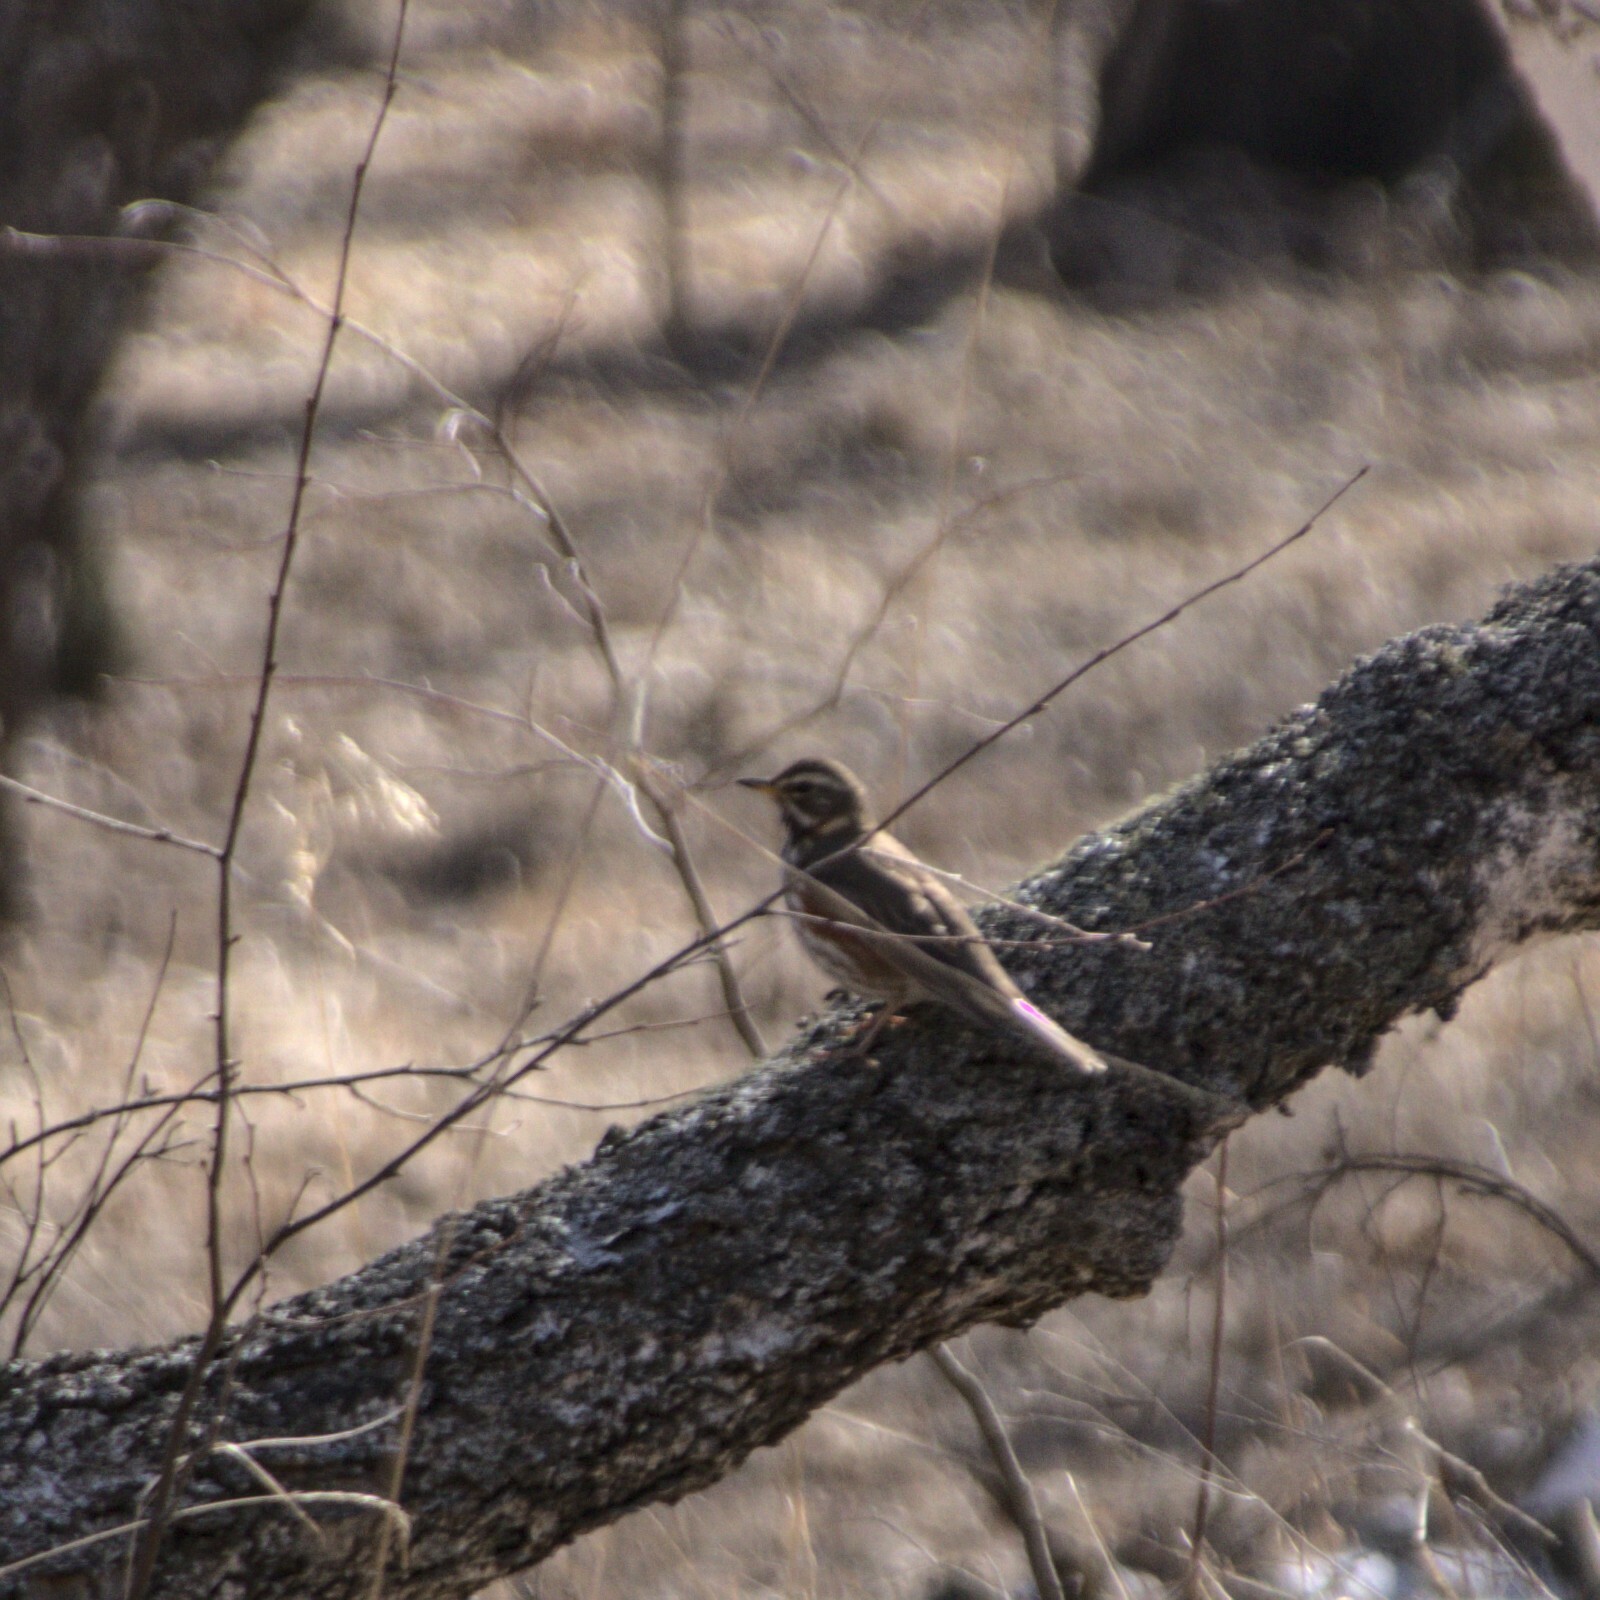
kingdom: Animalia
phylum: Chordata
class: Aves
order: Passeriformes
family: Turdidae
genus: Turdus
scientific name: Turdus iliacus
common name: Redwing
